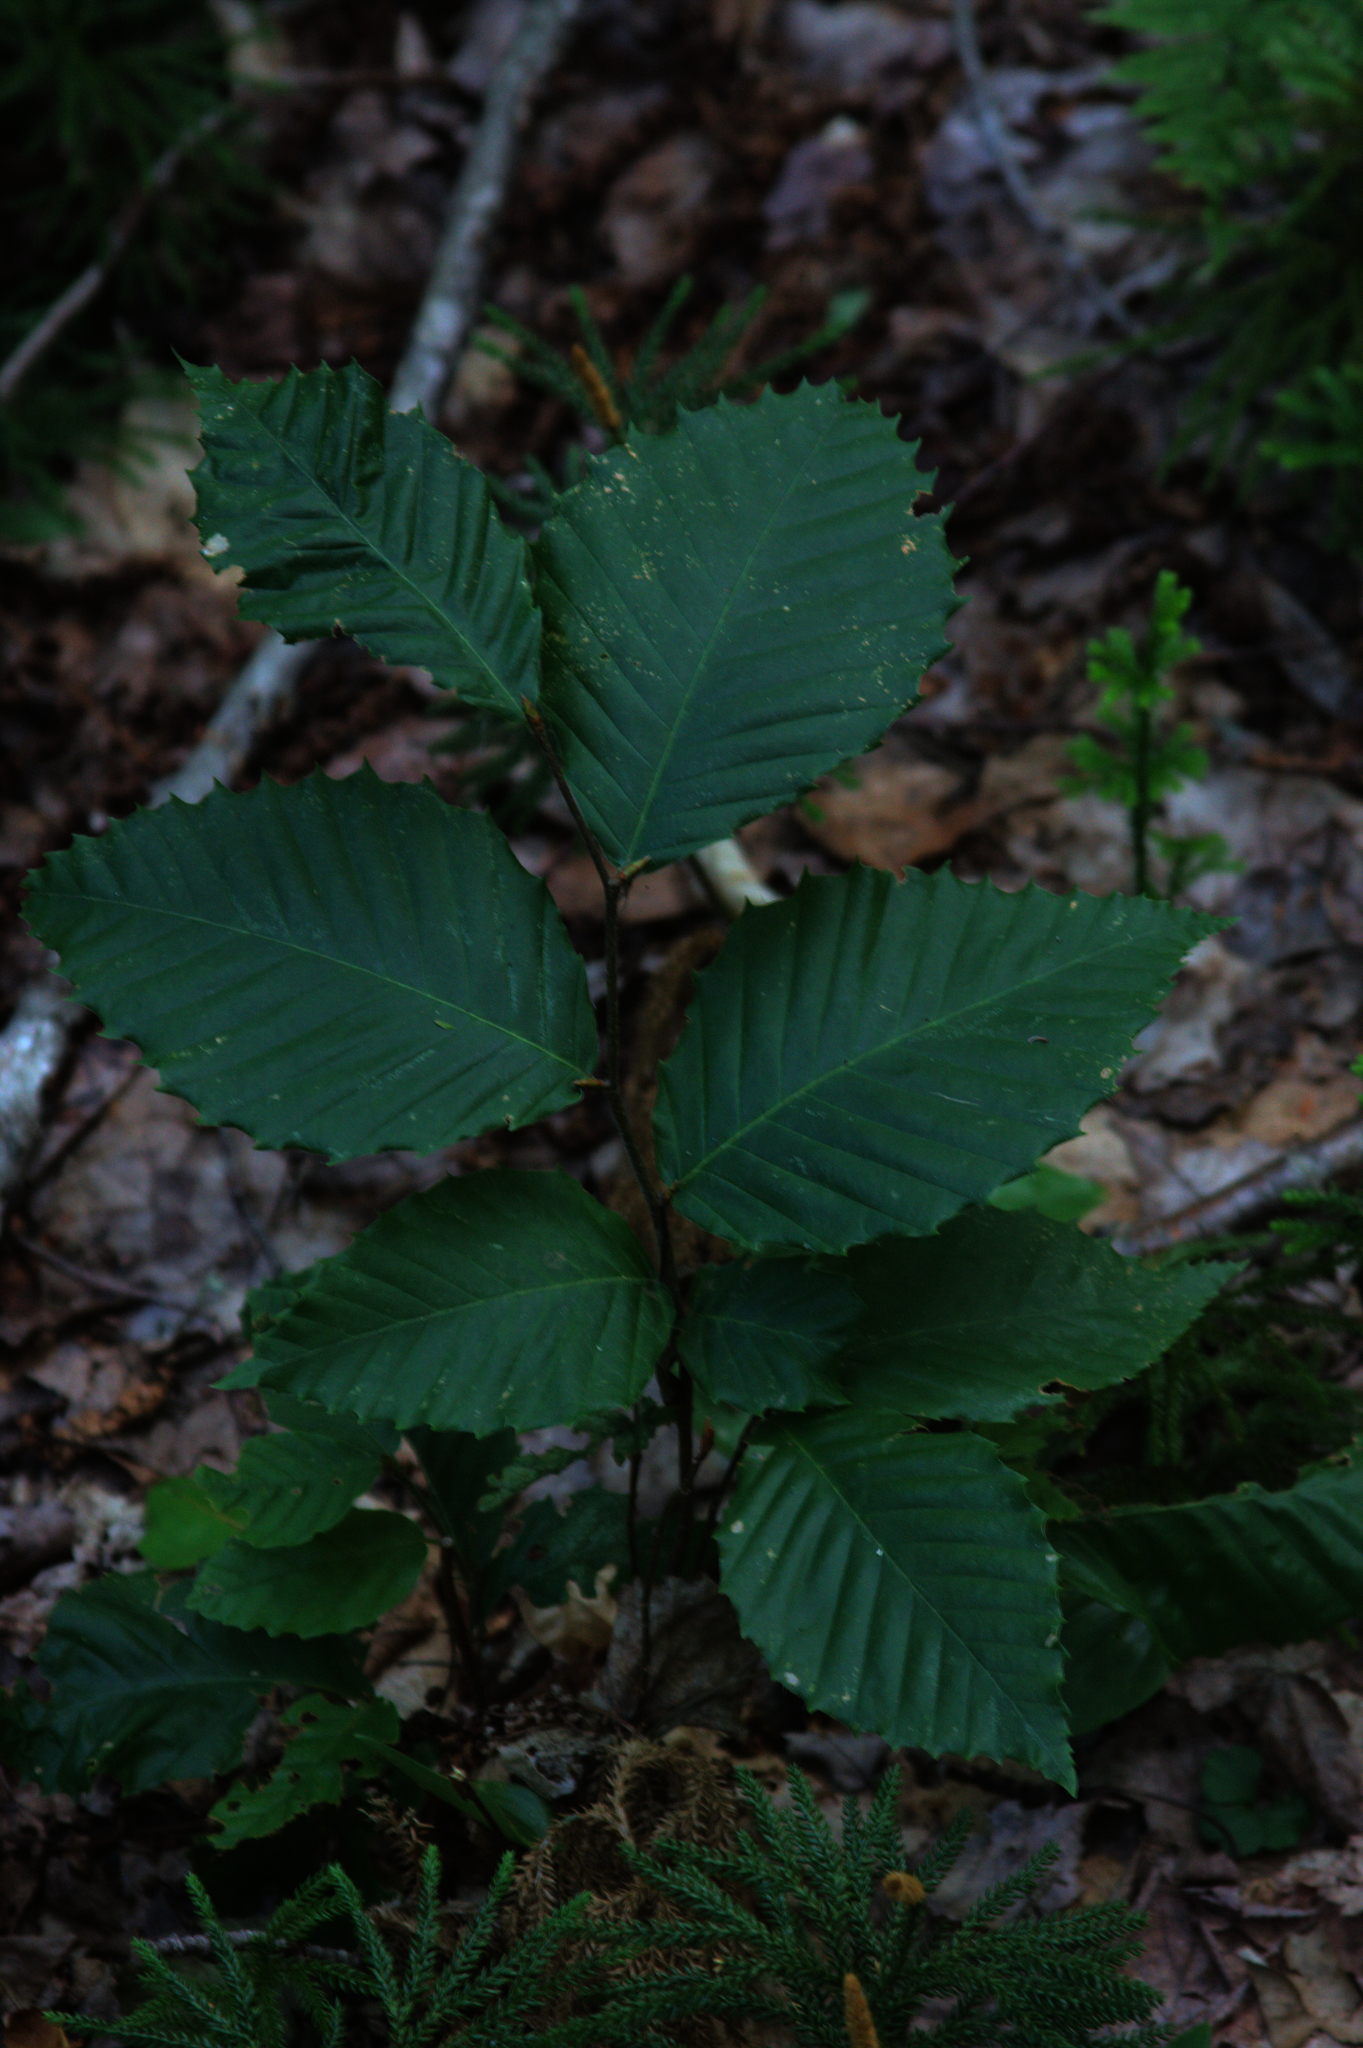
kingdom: Plantae
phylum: Tracheophyta
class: Magnoliopsida
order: Fagales
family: Fagaceae
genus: Fagus
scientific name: Fagus grandifolia
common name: American beech
